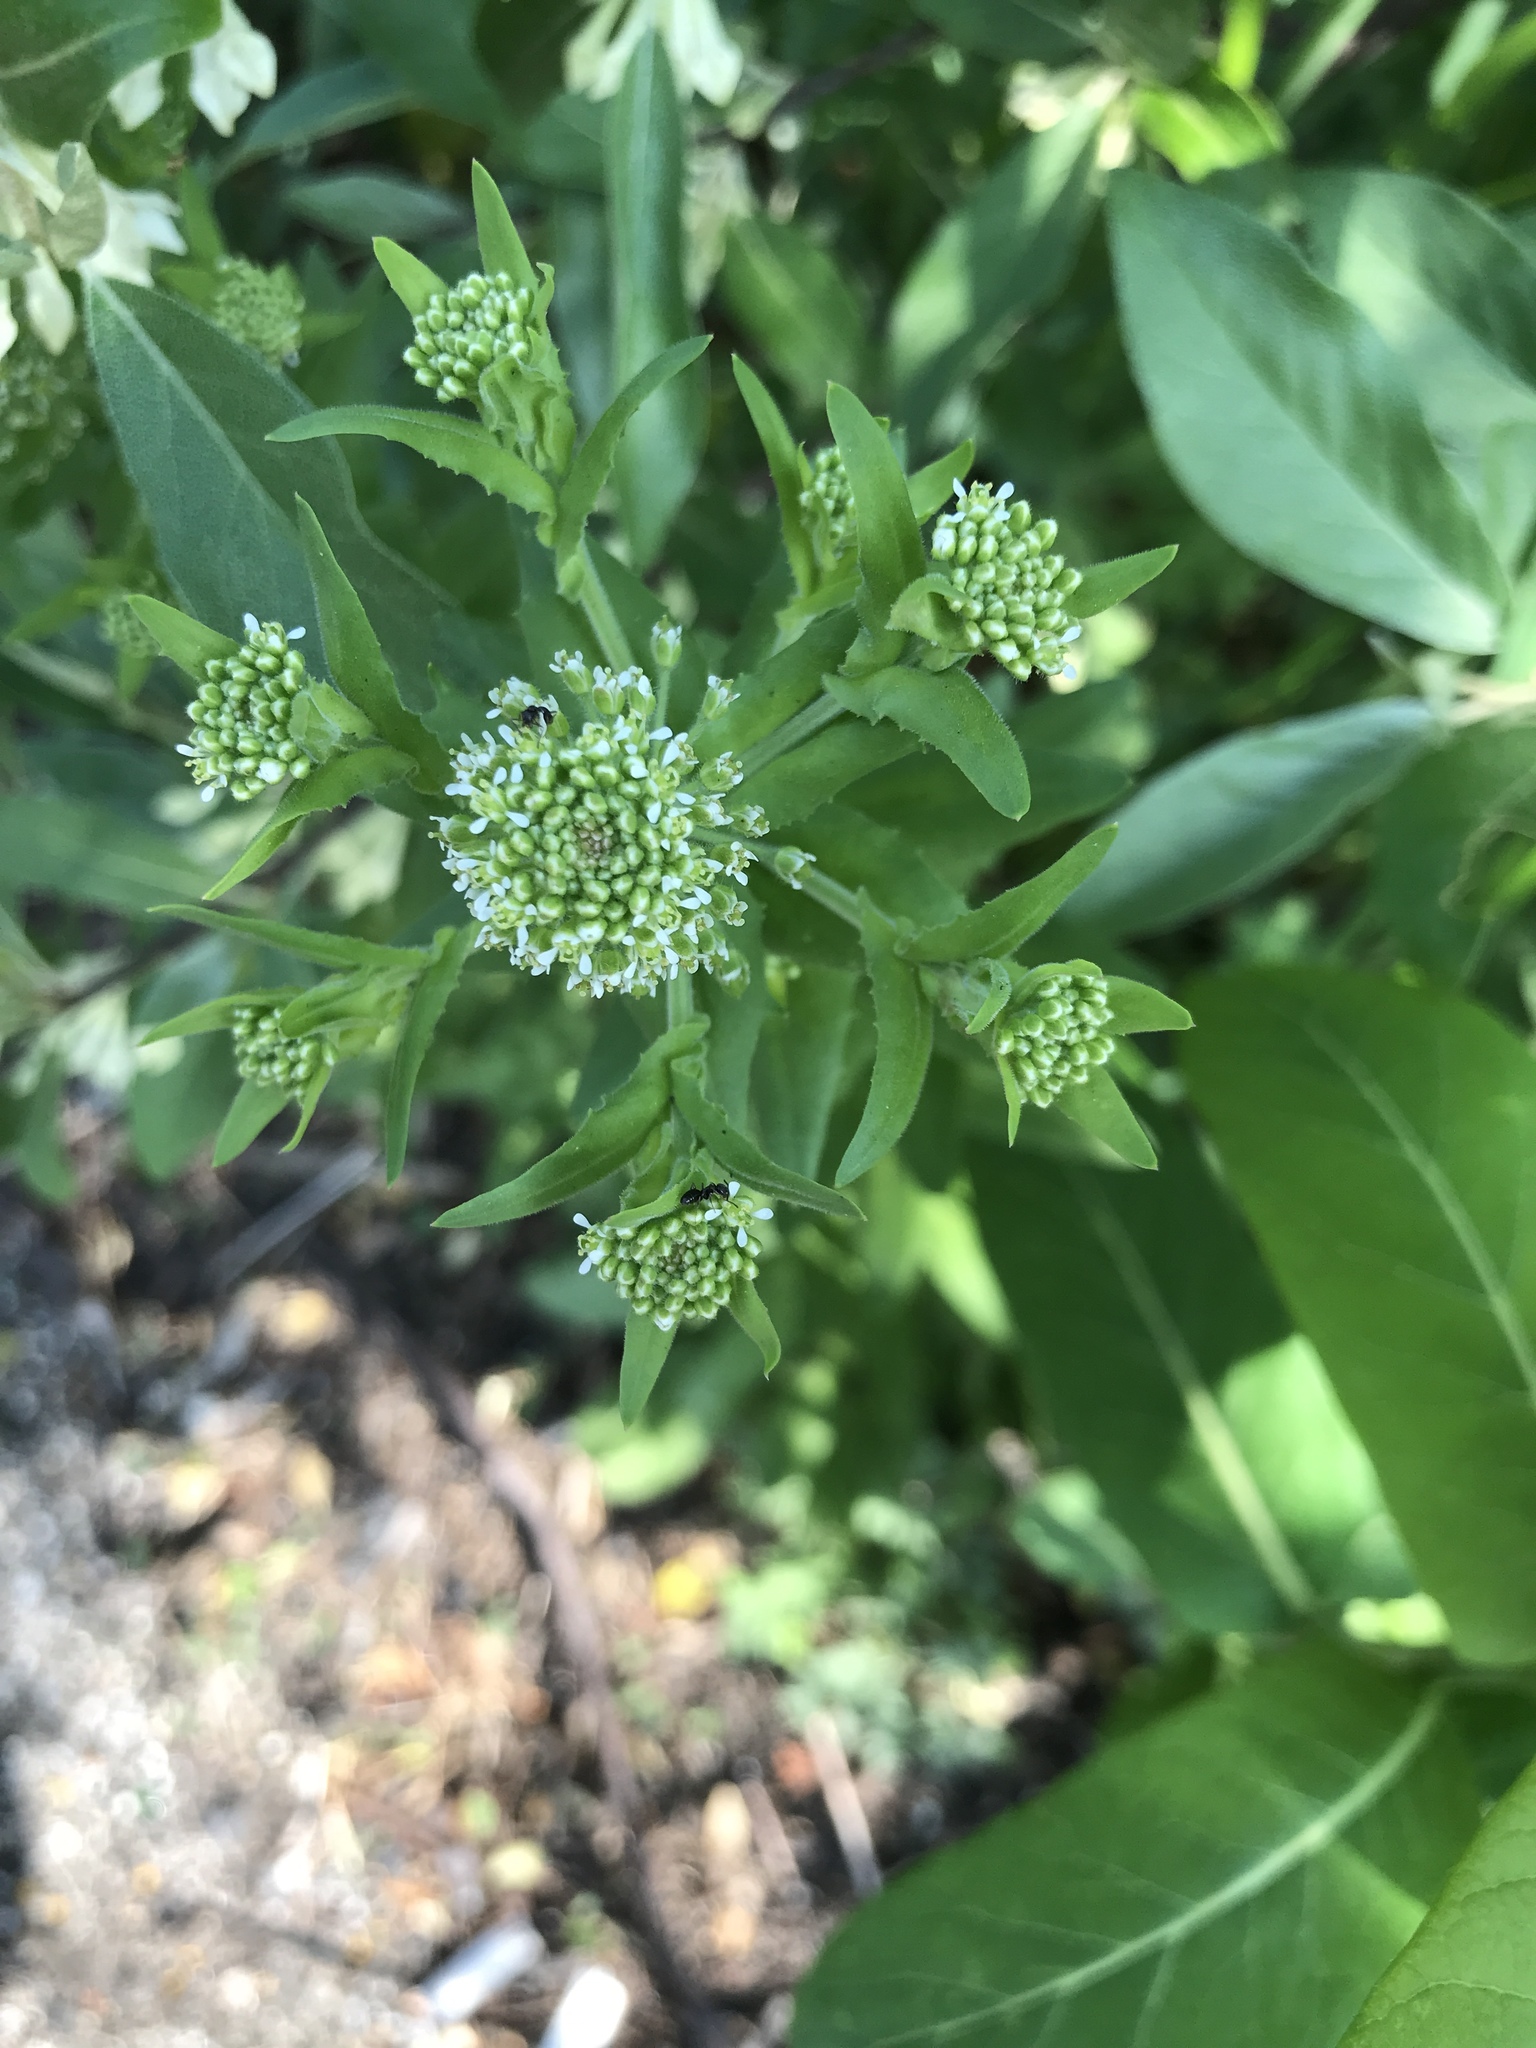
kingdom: Plantae
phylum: Tracheophyta
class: Magnoliopsida
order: Brassicales
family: Brassicaceae
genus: Lepidium
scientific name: Lepidium campestre
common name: Field pepperwort
